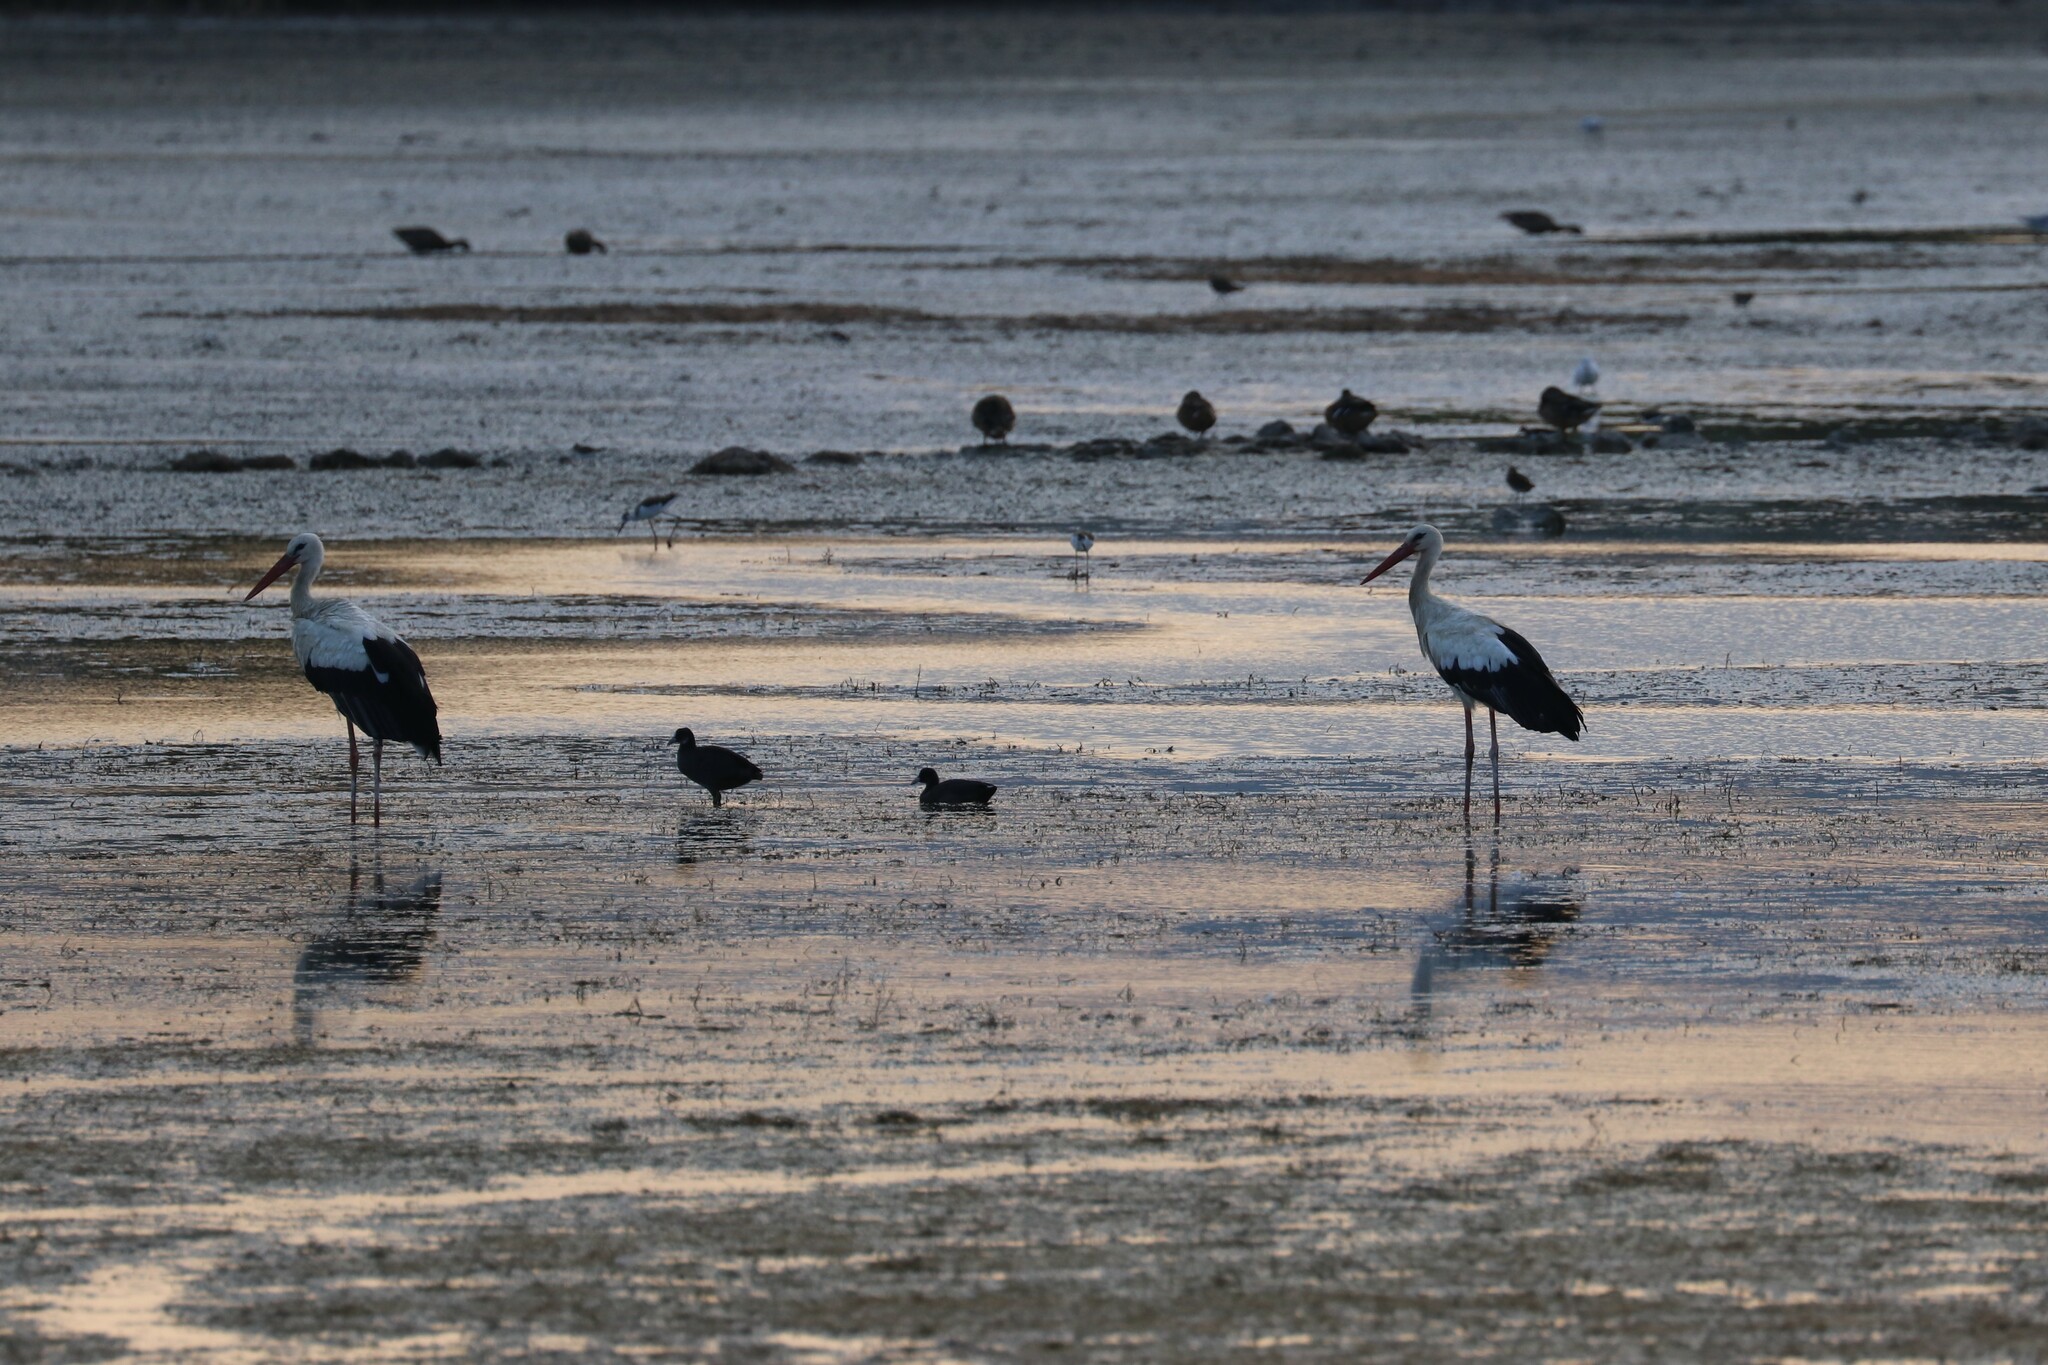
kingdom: Animalia
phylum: Chordata
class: Aves
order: Ciconiiformes
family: Ciconiidae
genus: Ciconia
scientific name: Ciconia ciconia
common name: White stork
